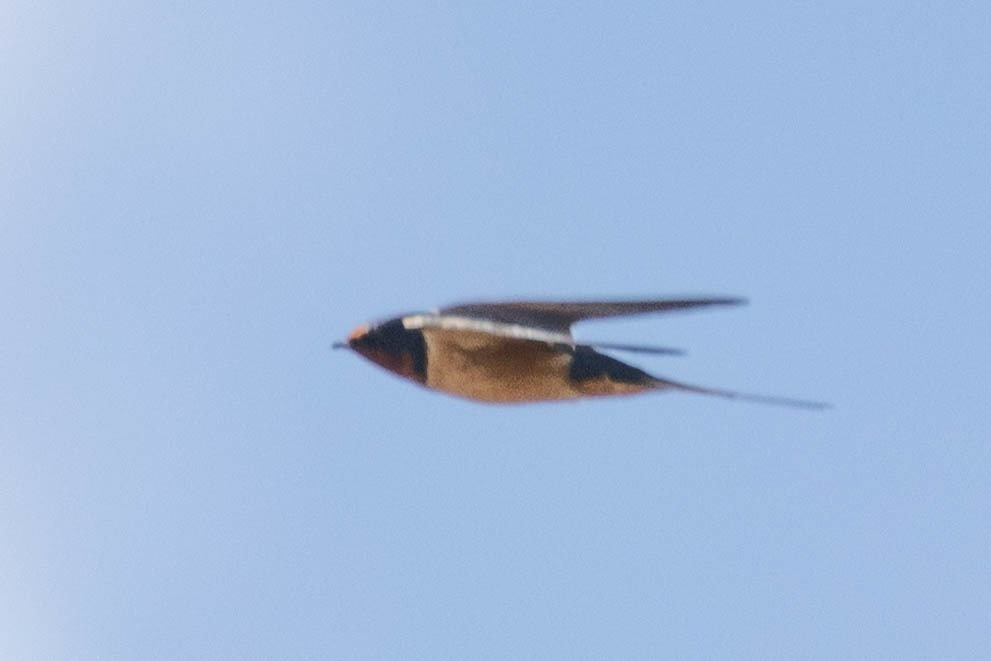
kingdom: Animalia
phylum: Chordata
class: Aves
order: Passeriformes
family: Hirundinidae
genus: Hirundo
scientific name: Hirundo rustica
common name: Barn swallow
